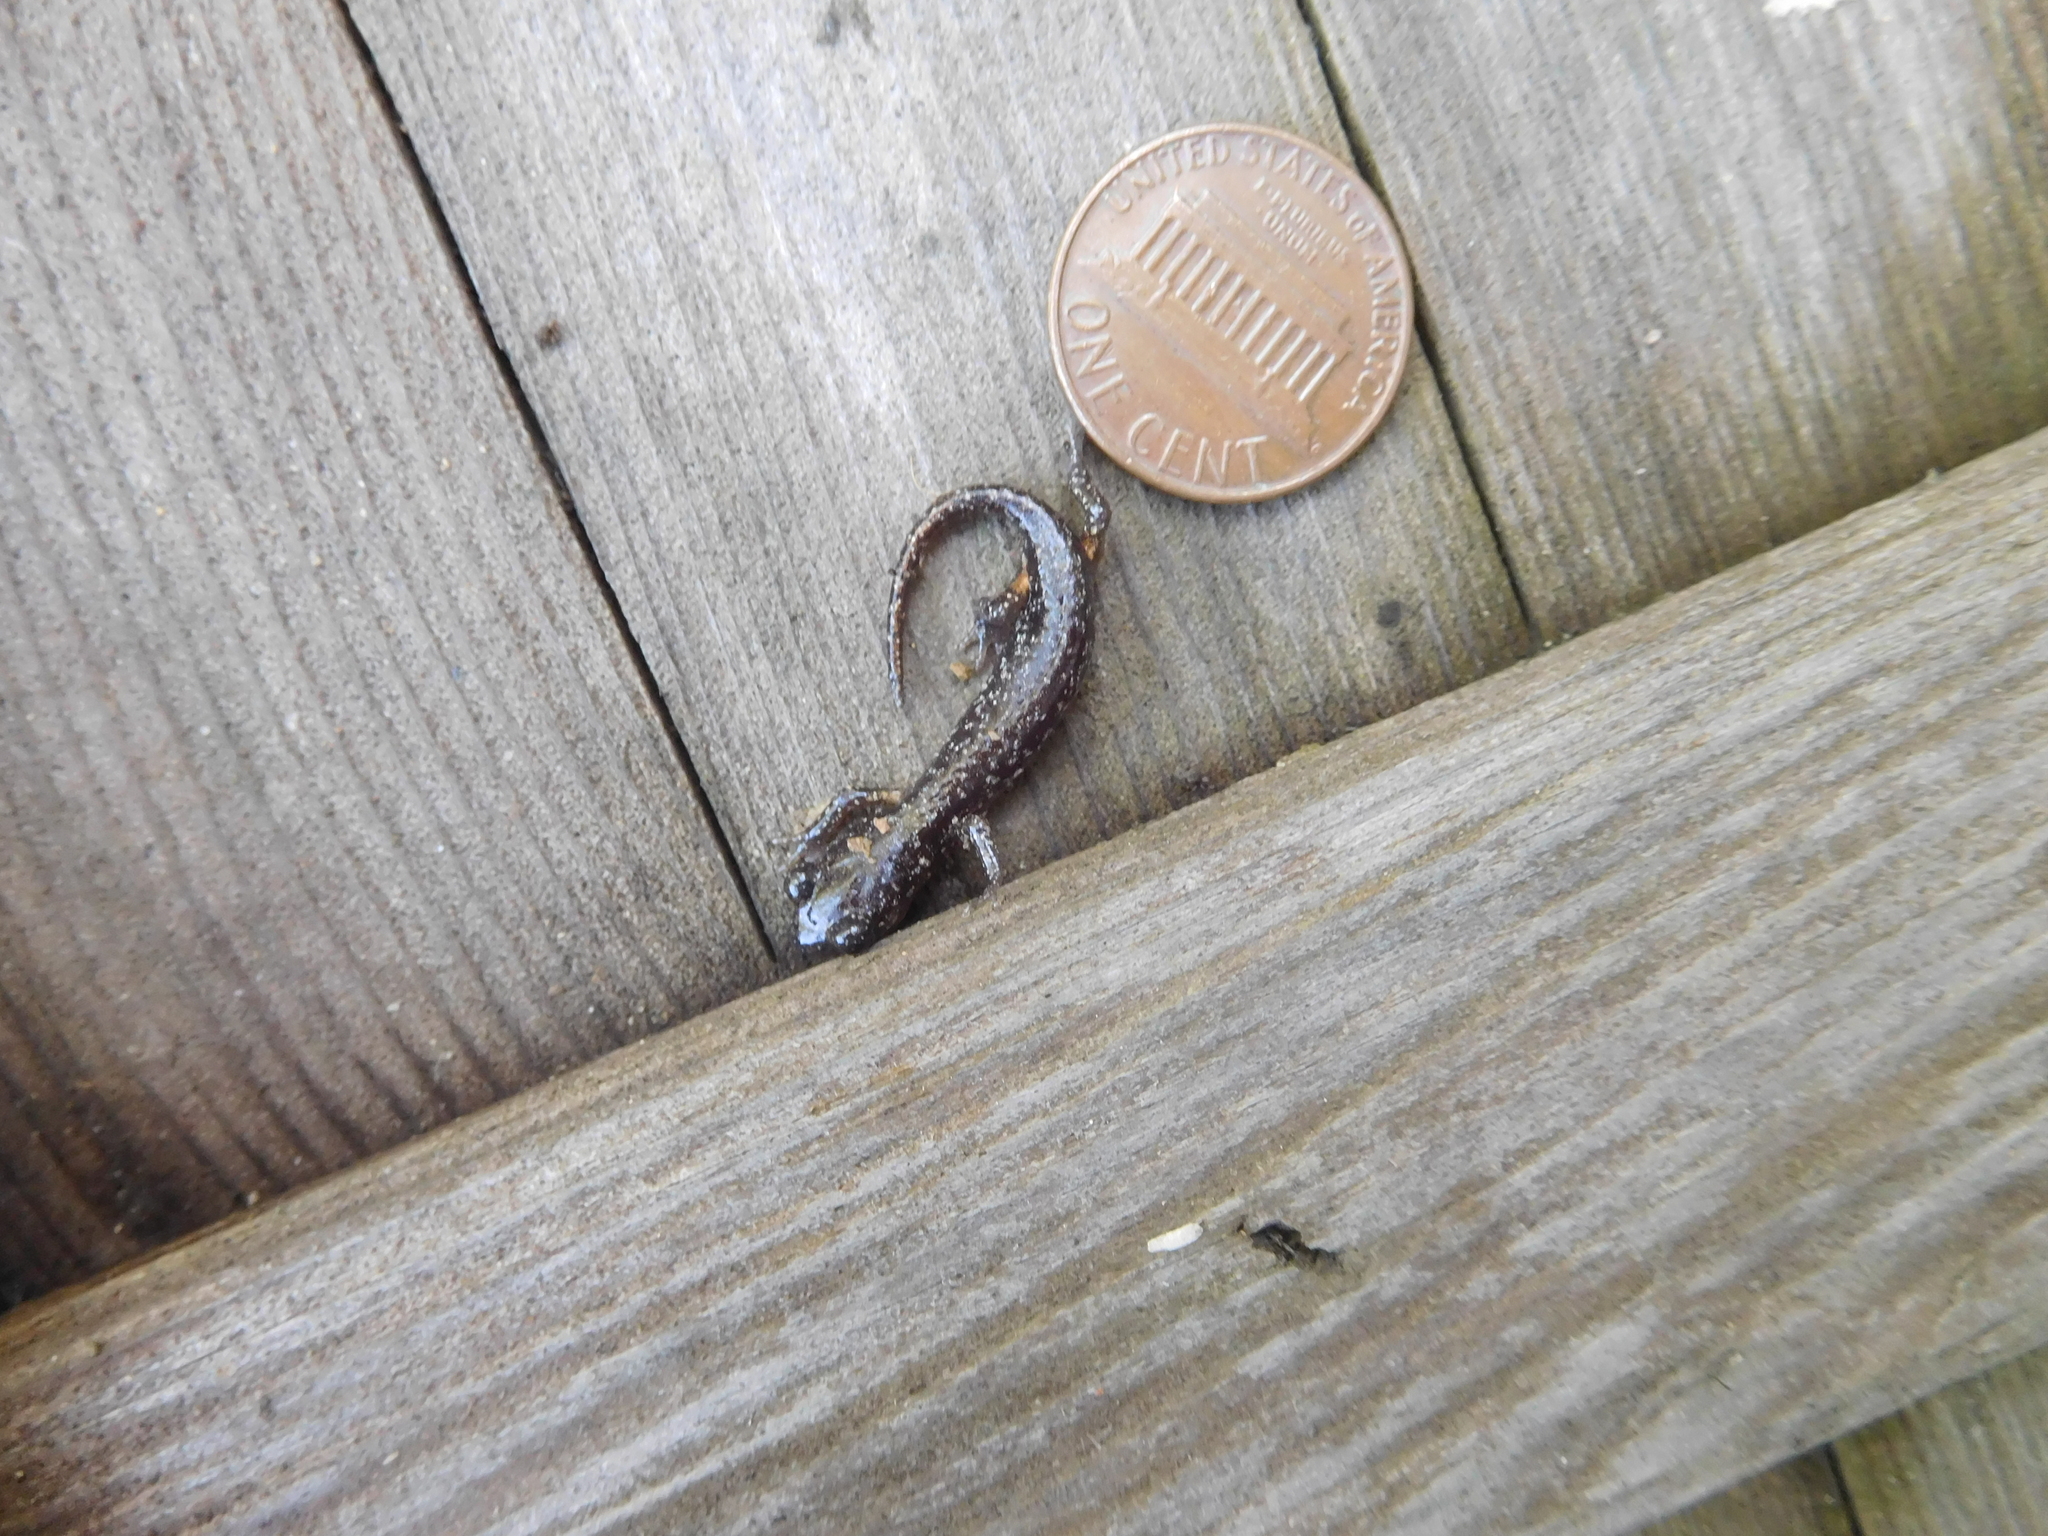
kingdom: Animalia
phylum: Chordata
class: Amphibia
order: Caudata
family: Plethodontidae
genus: Aneides
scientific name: Aneides lugubris
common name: Arboreal salamander
